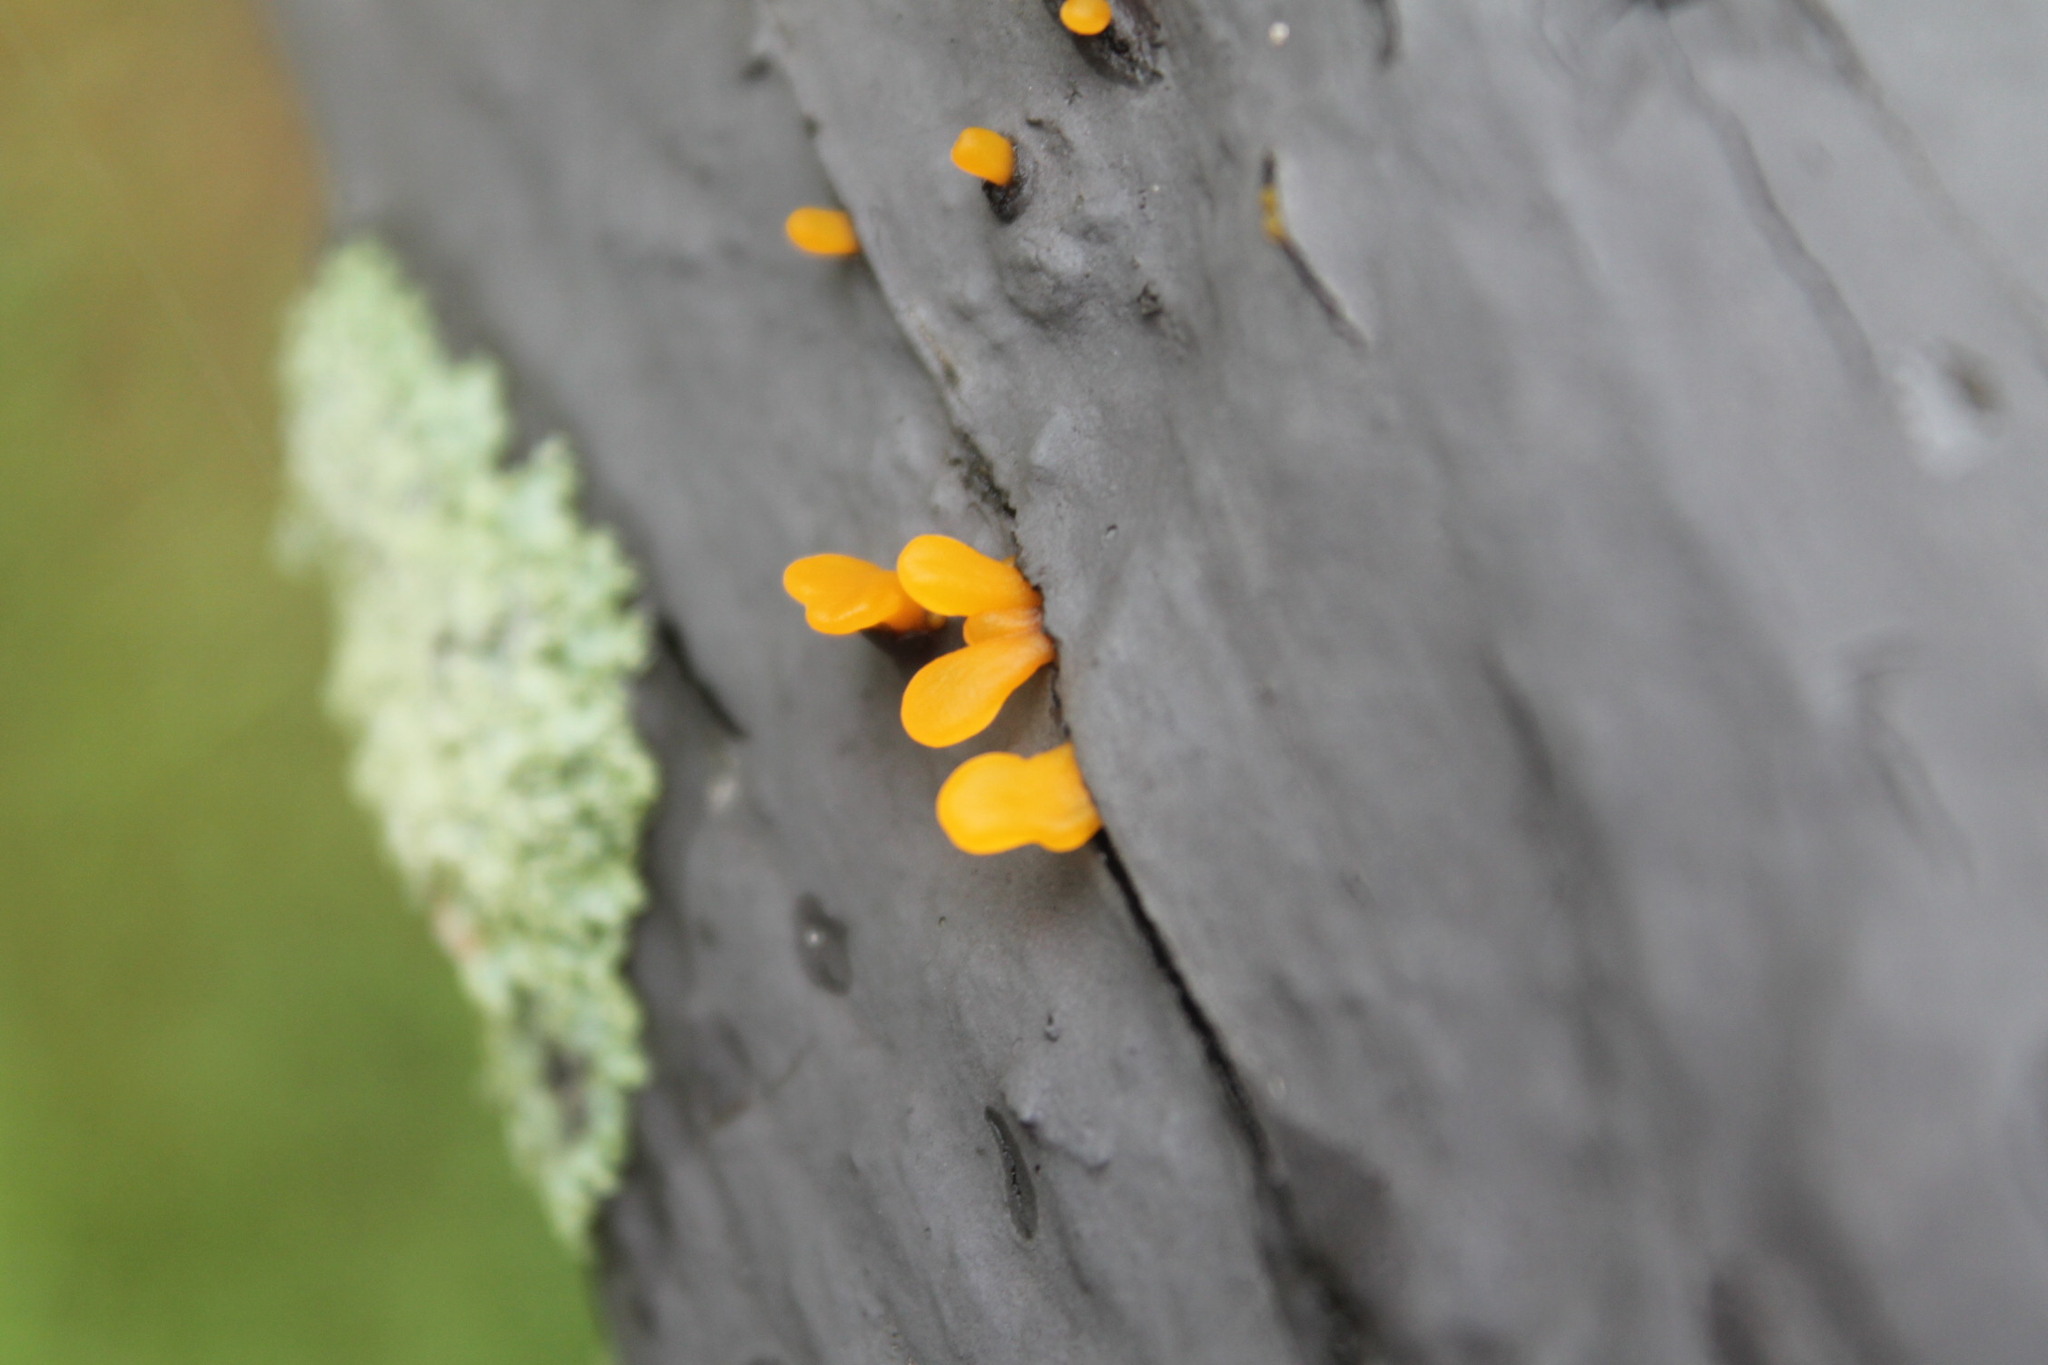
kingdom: Fungi
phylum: Basidiomycota
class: Dacrymycetes
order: Dacrymycetales
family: Dacrymycetaceae
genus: Dacrymyces
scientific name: Dacrymyces spathularius
